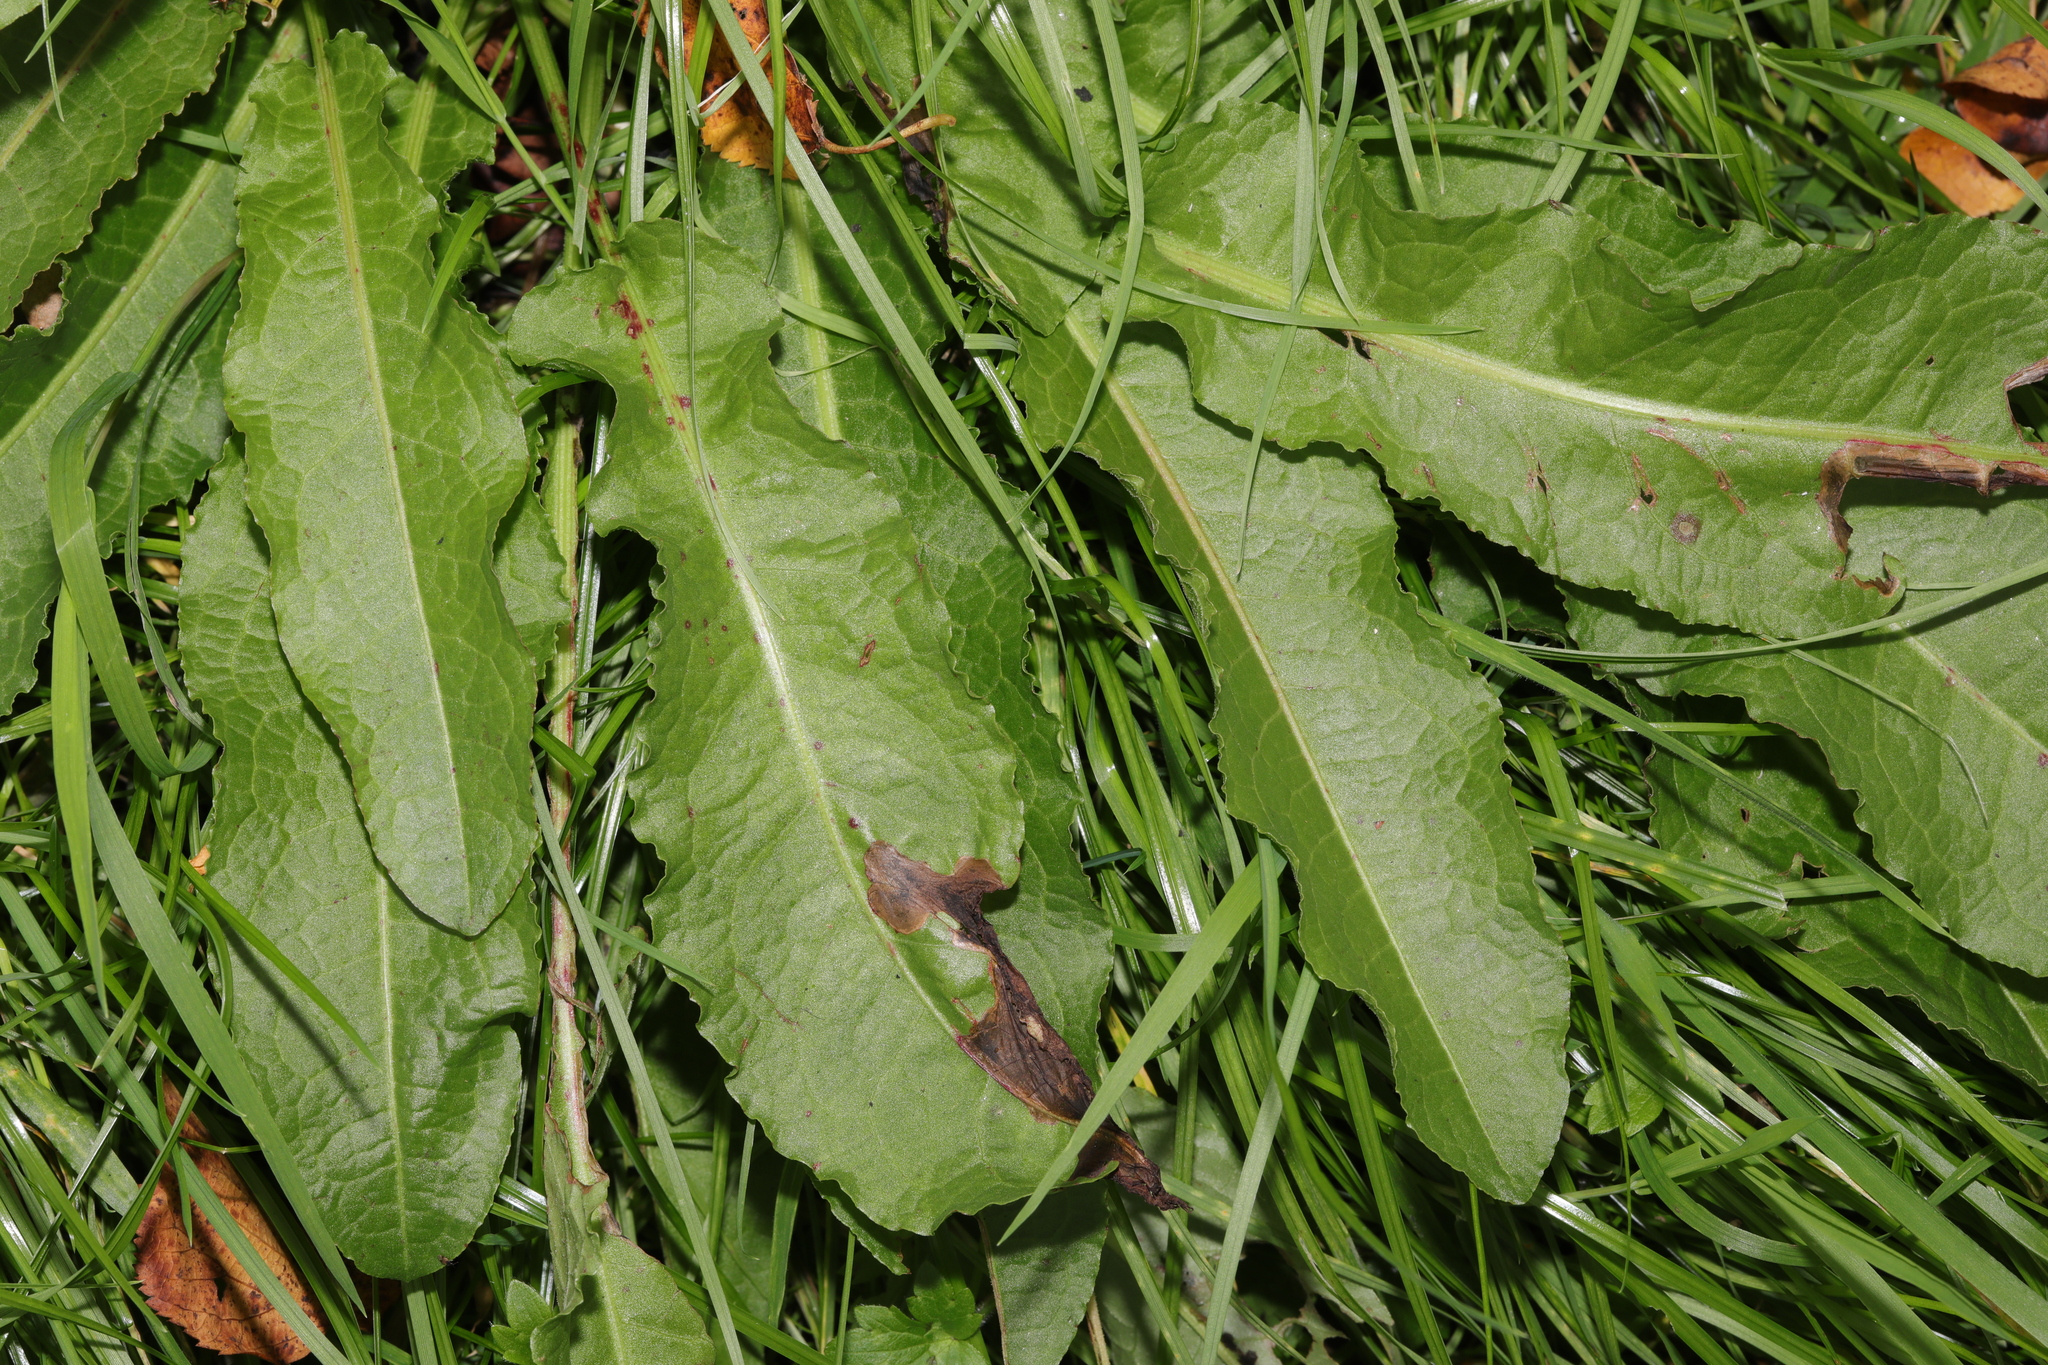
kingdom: Plantae
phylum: Tracheophyta
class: Magnoliopsida
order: Caryophyllales
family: Polygonaceae
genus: Rumex
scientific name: Rumex crispus
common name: Curled dock
